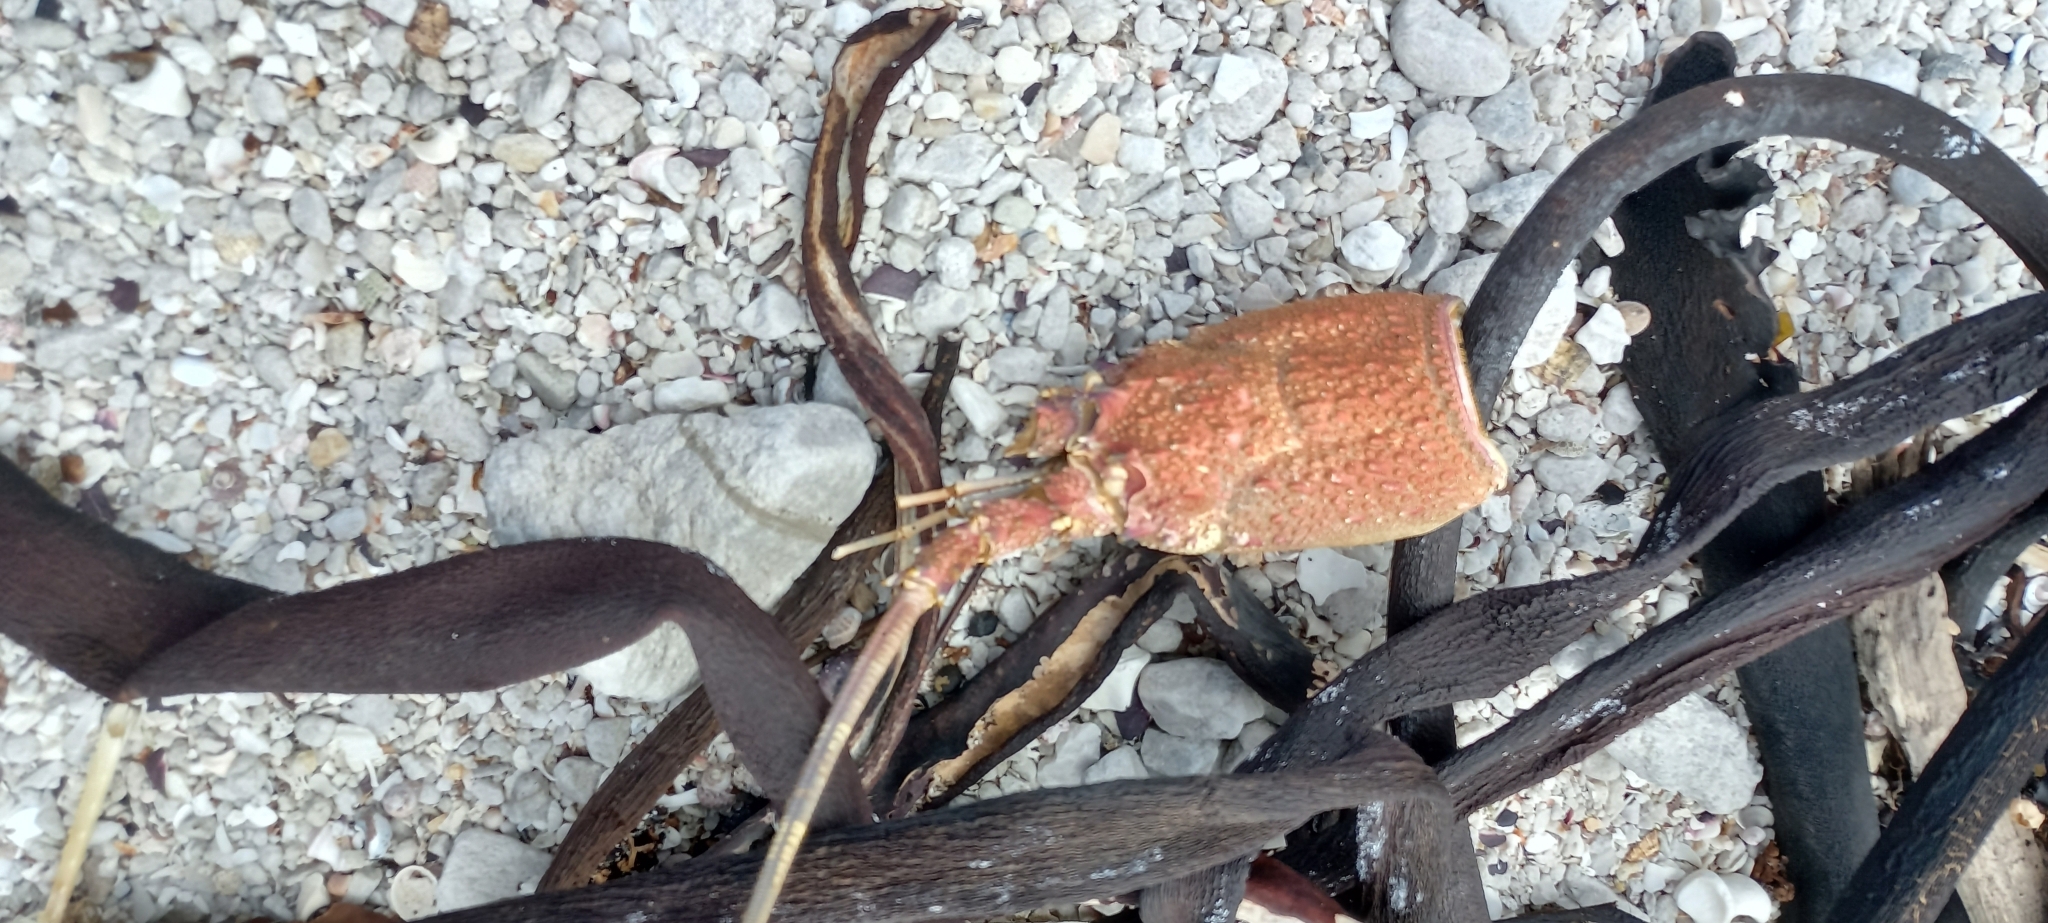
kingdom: Animalia
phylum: Arthropoda
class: Malacostraca
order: Decapoda
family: Palinuridae
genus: Jasus
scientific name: Jasus lalandii
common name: Cape rock lobster
